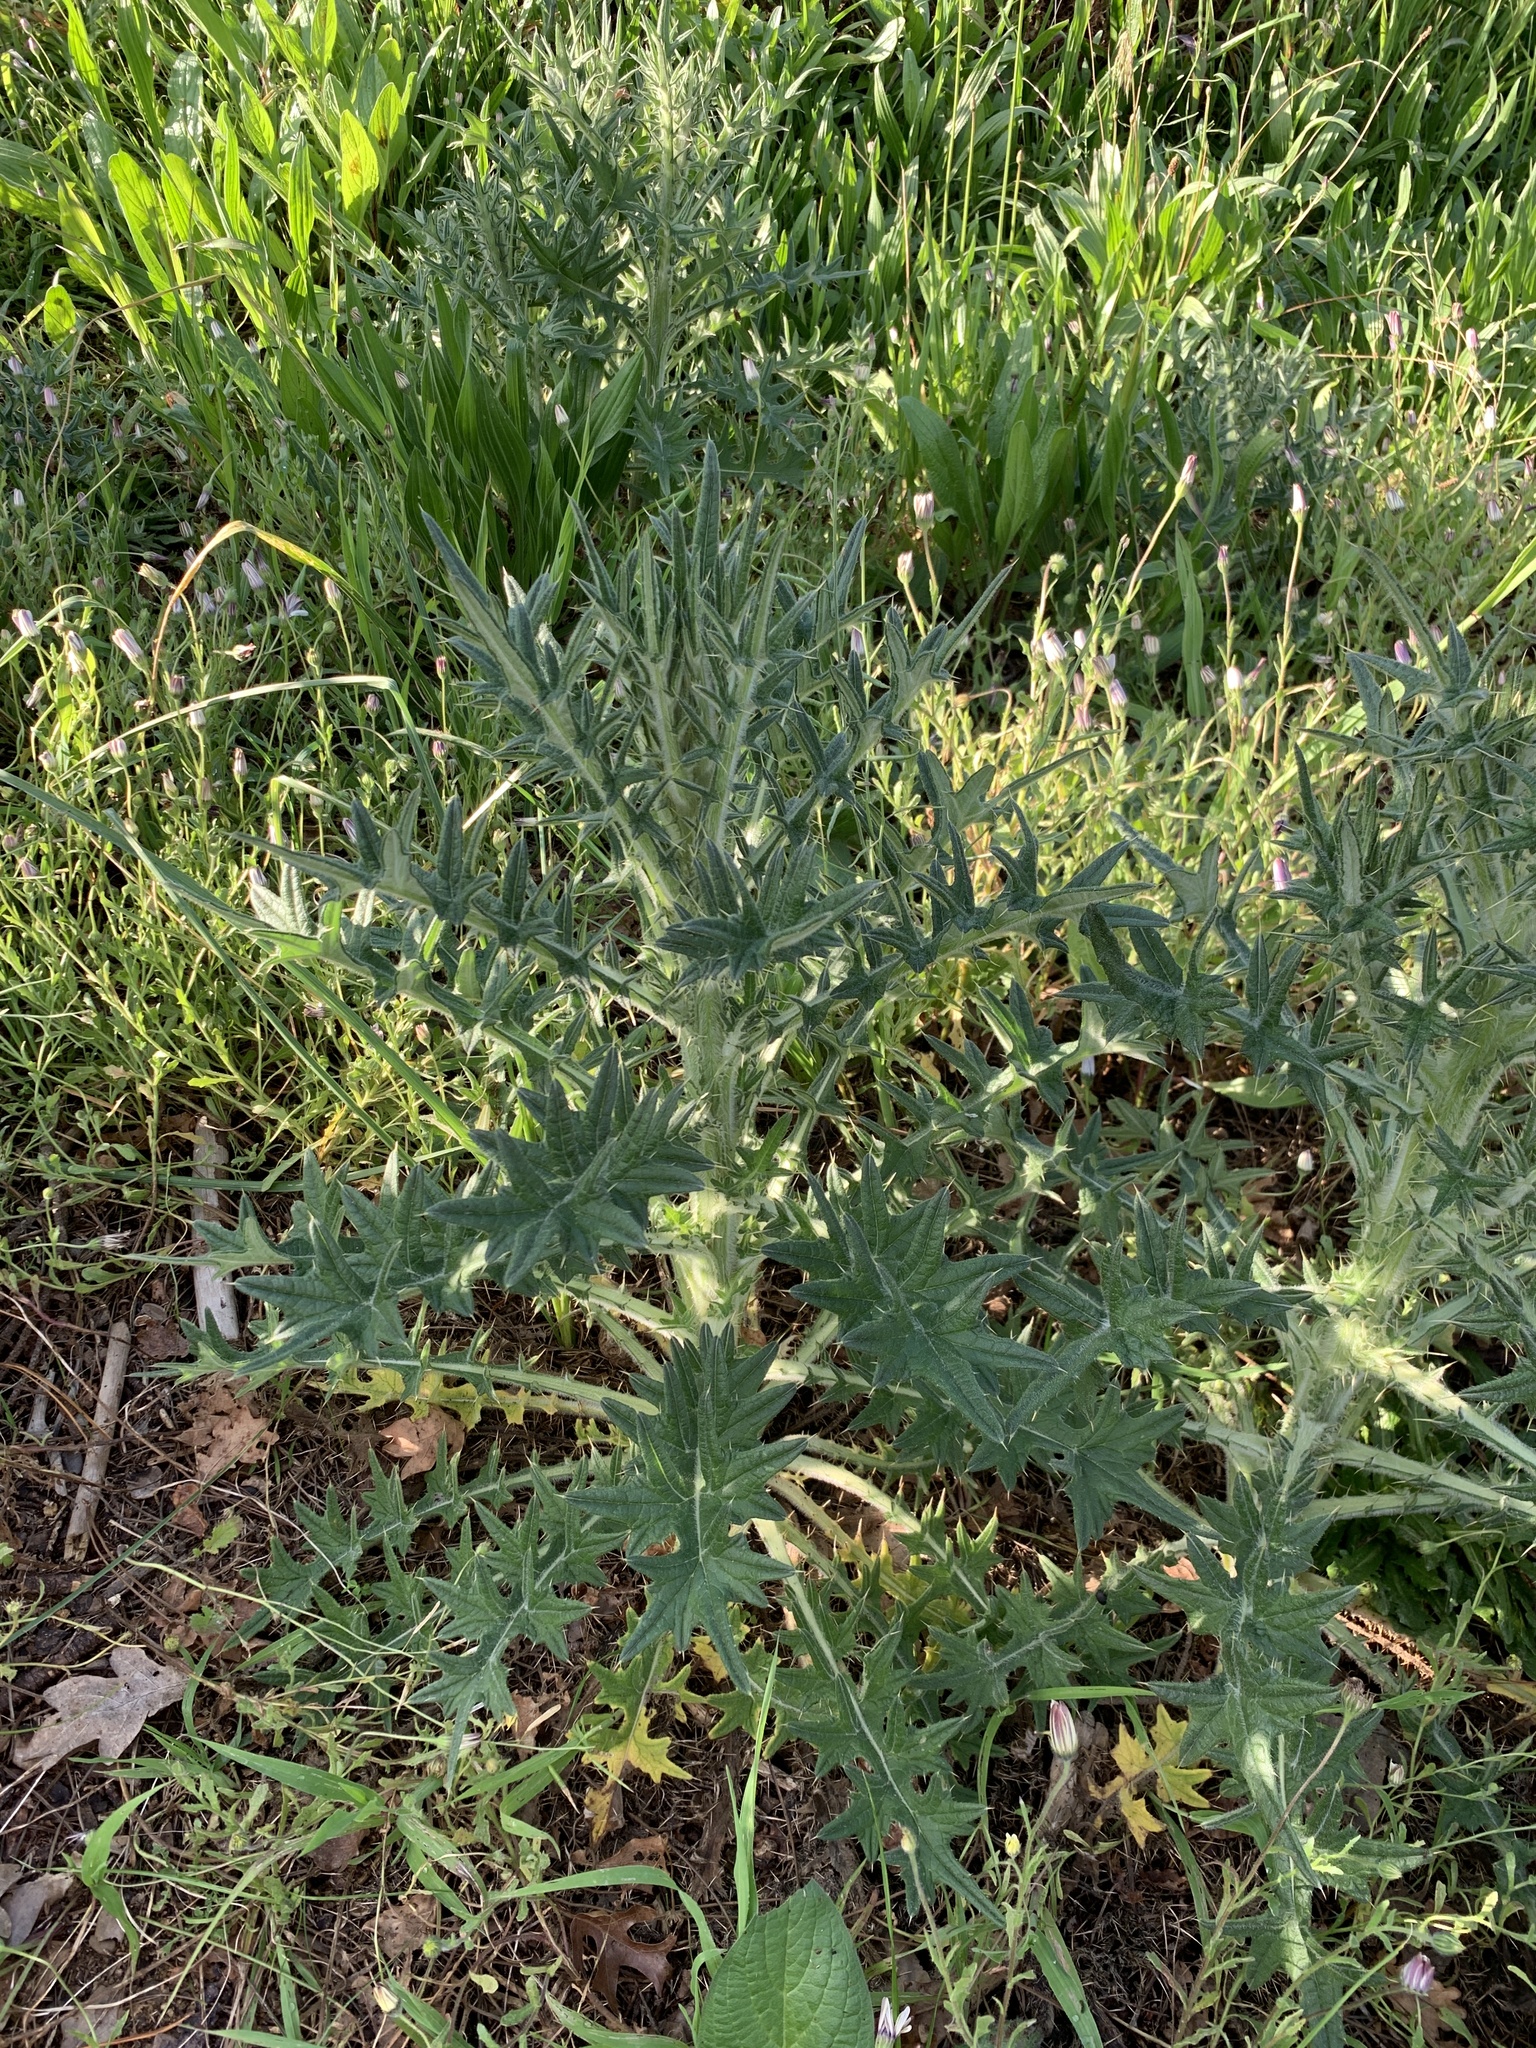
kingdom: Plantae
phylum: Tracheophyta
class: Magnoliopsida
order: Asterales
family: Asteraceae
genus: Cirsium
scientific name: Cirsium vulgare
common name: Bull thistle
